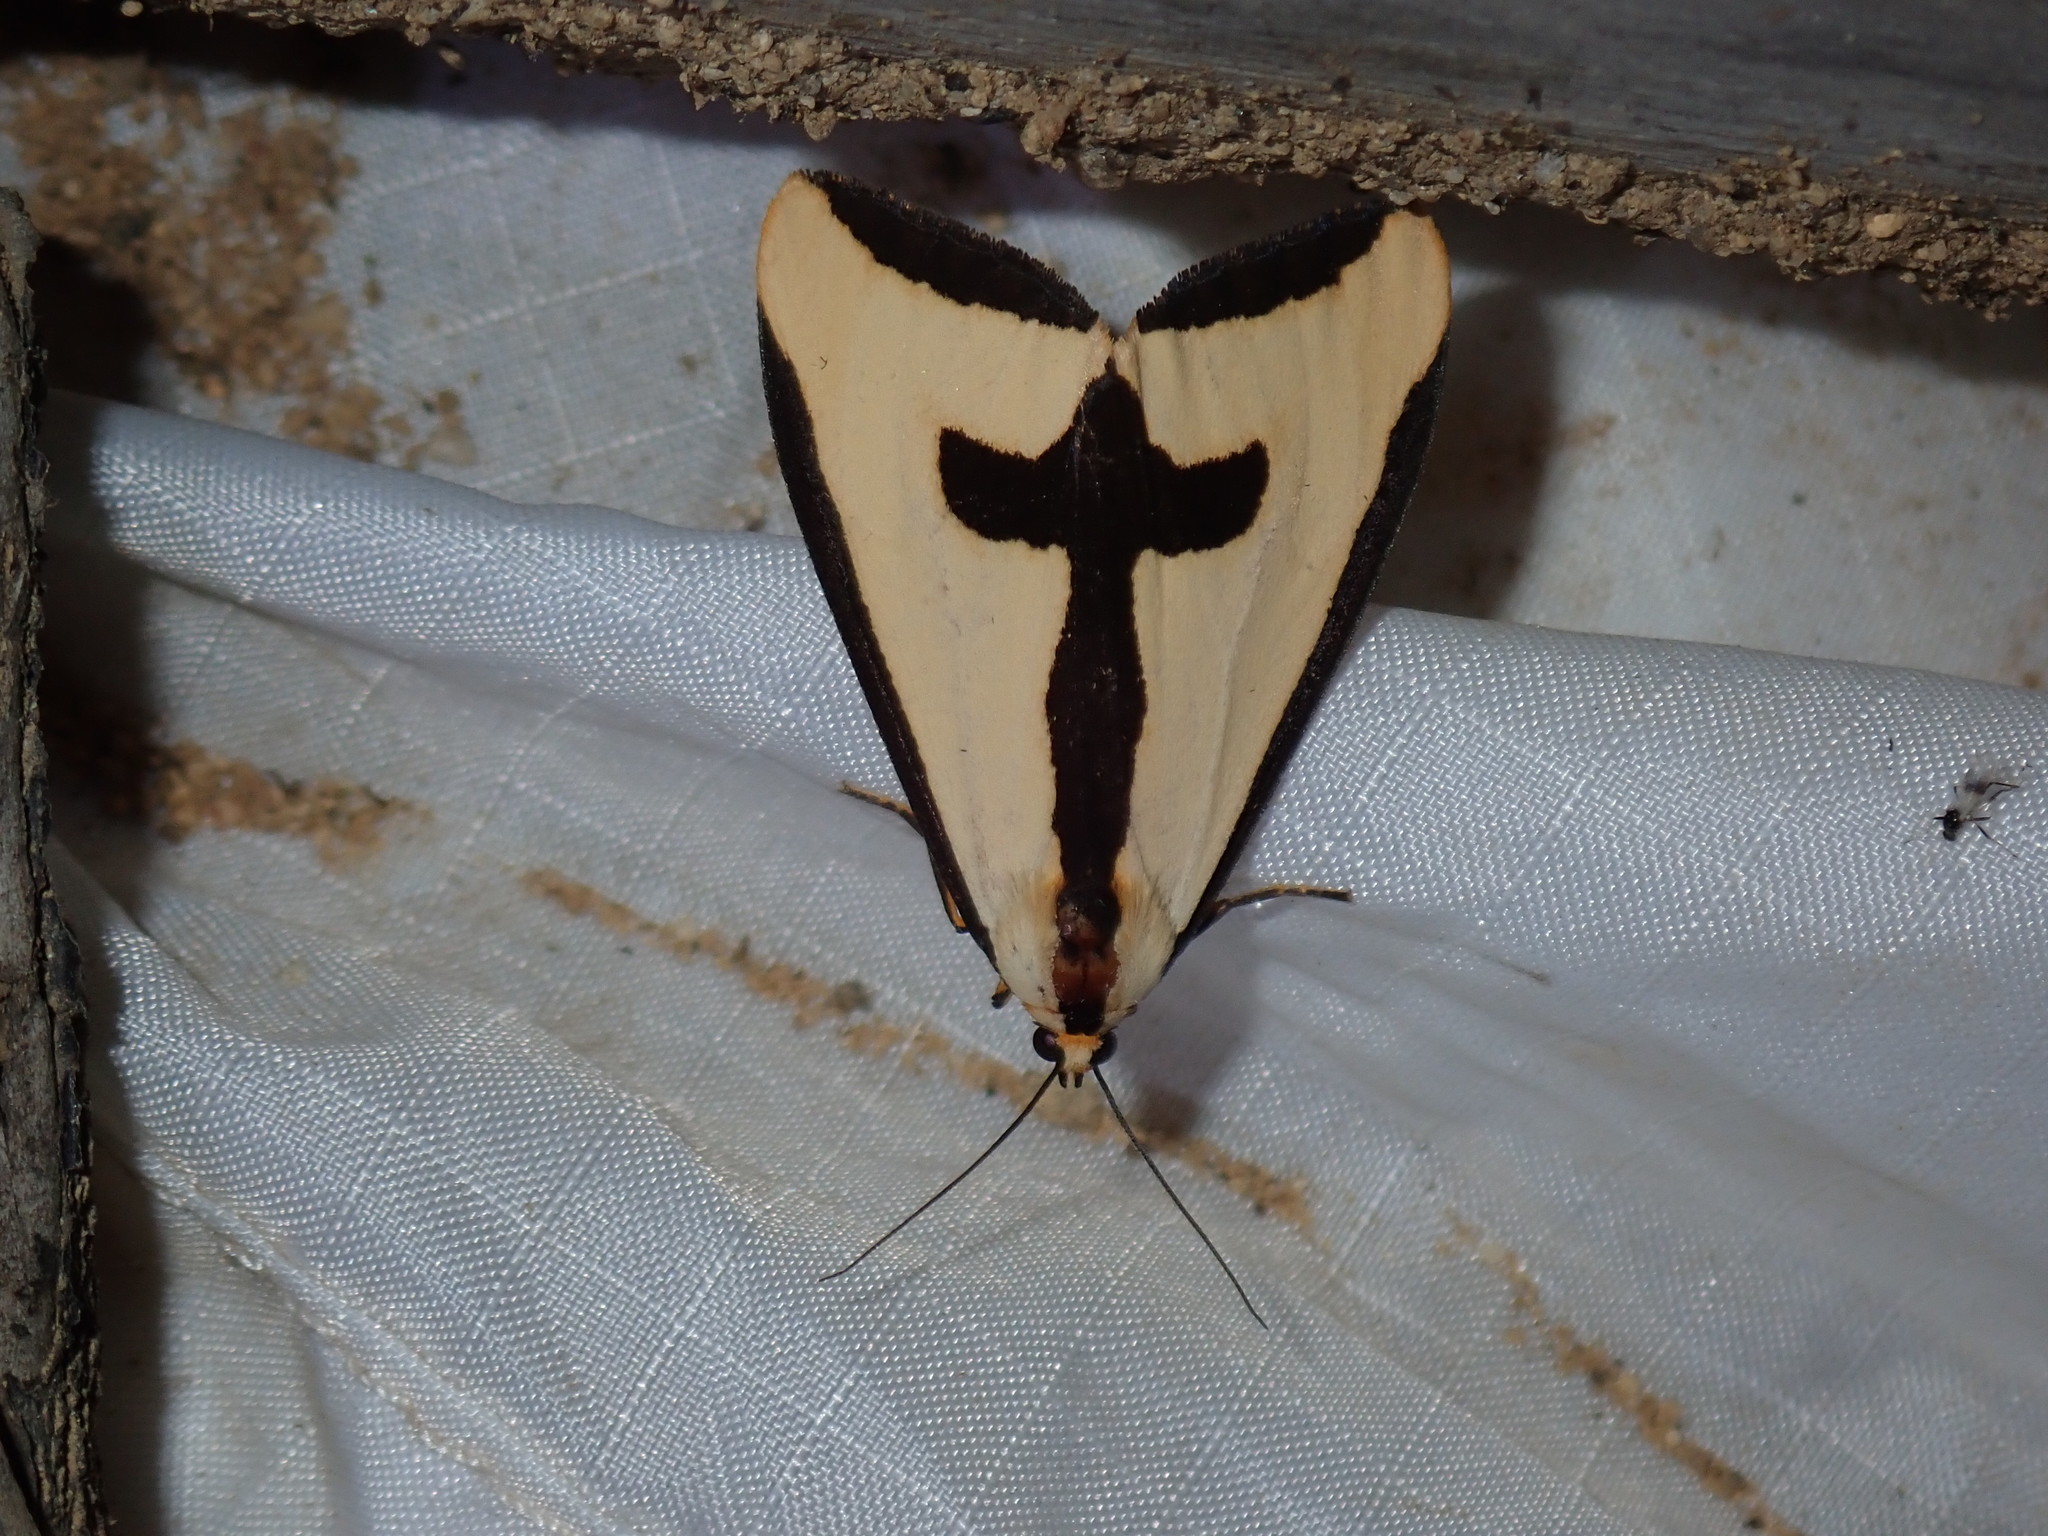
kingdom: Animalia
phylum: Arthropoda
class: Insecta
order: Lepidoptera
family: Erebidae
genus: Haploa
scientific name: Haploa clymene
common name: Clymene moth
